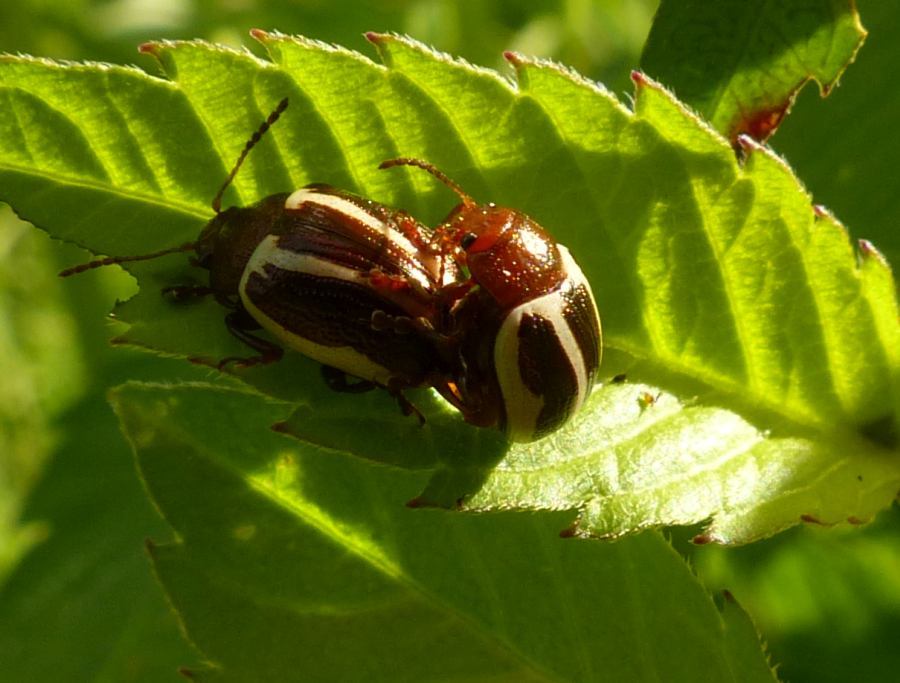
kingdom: Animalia
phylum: Arthropoda
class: Insecta
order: Coleoptera
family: Chrysomelidae
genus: Calligrapha
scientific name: Calligrapha bidenticola
